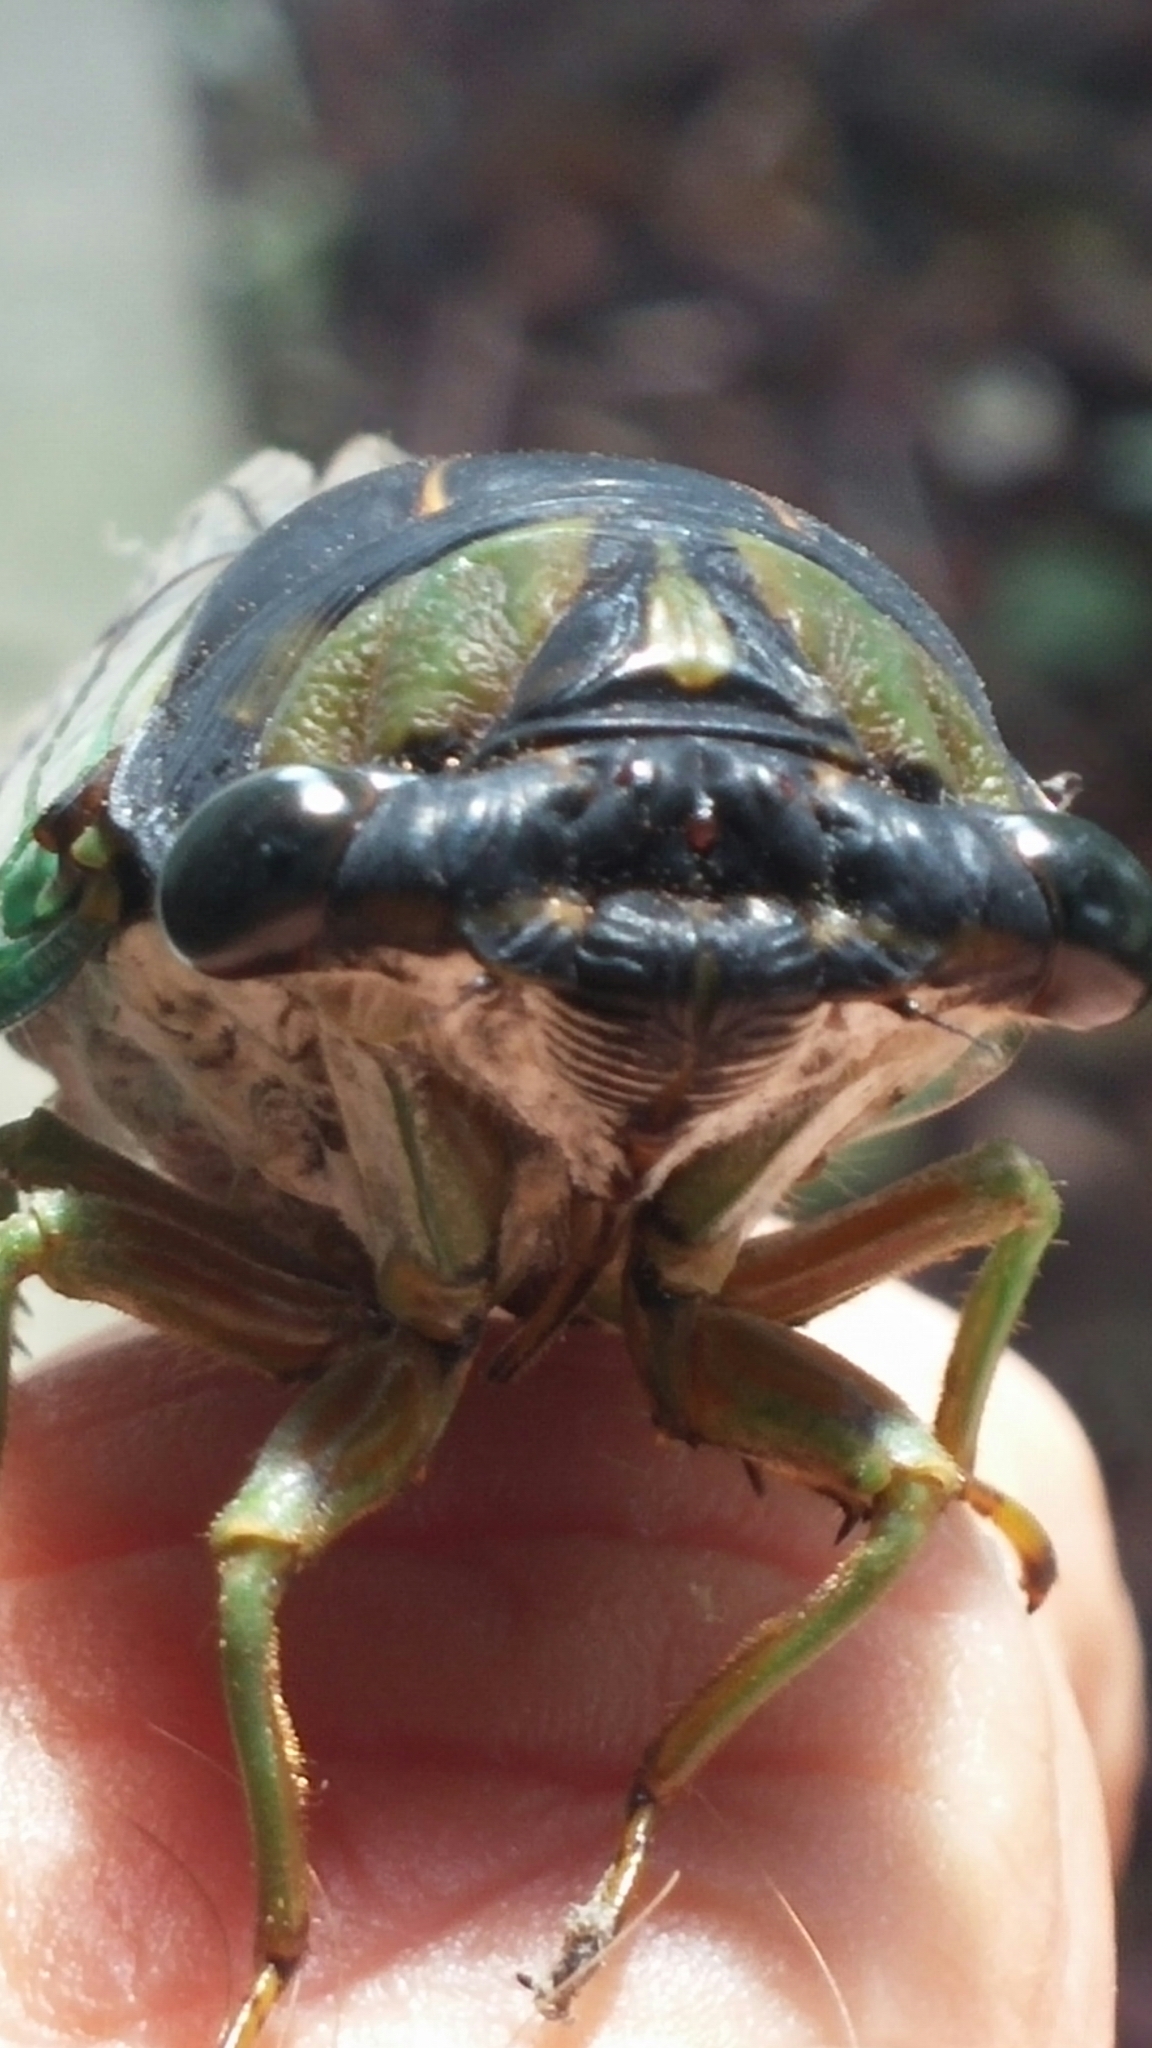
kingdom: Animalia
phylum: Arthropoda
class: Insecta
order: Hemiptera
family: Cicadidae
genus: Neotibicen
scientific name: Neotibicen tibicen
